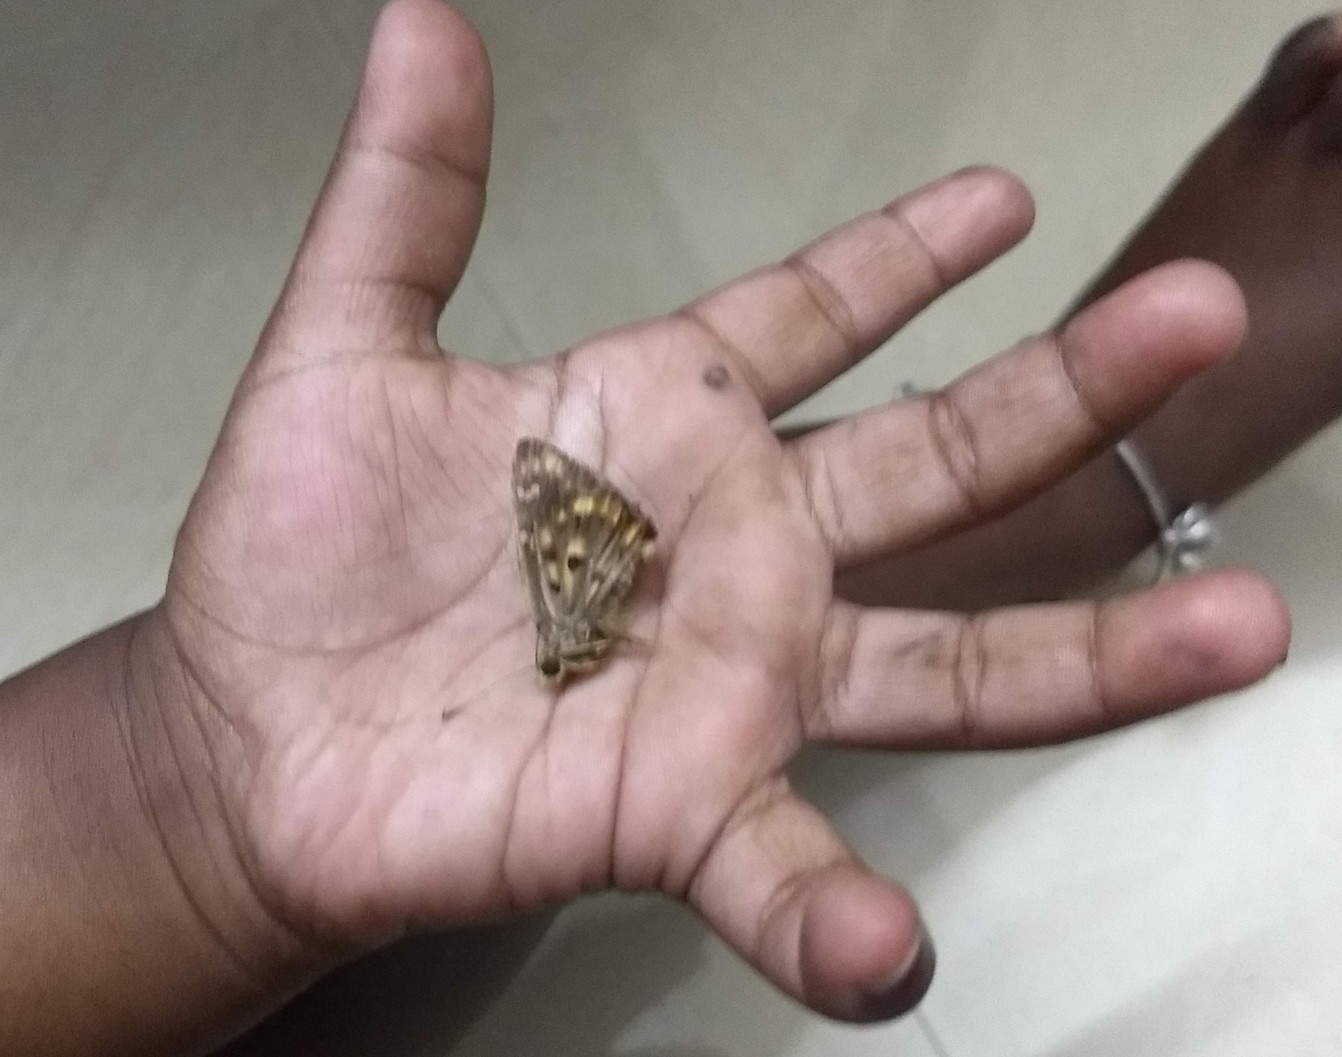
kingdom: Animalia
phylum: Arthropoda
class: Insecta
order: Lepidoptera
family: Hesperiidae
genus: Thoressa
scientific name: Thoressa honorei
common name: Madras ace
